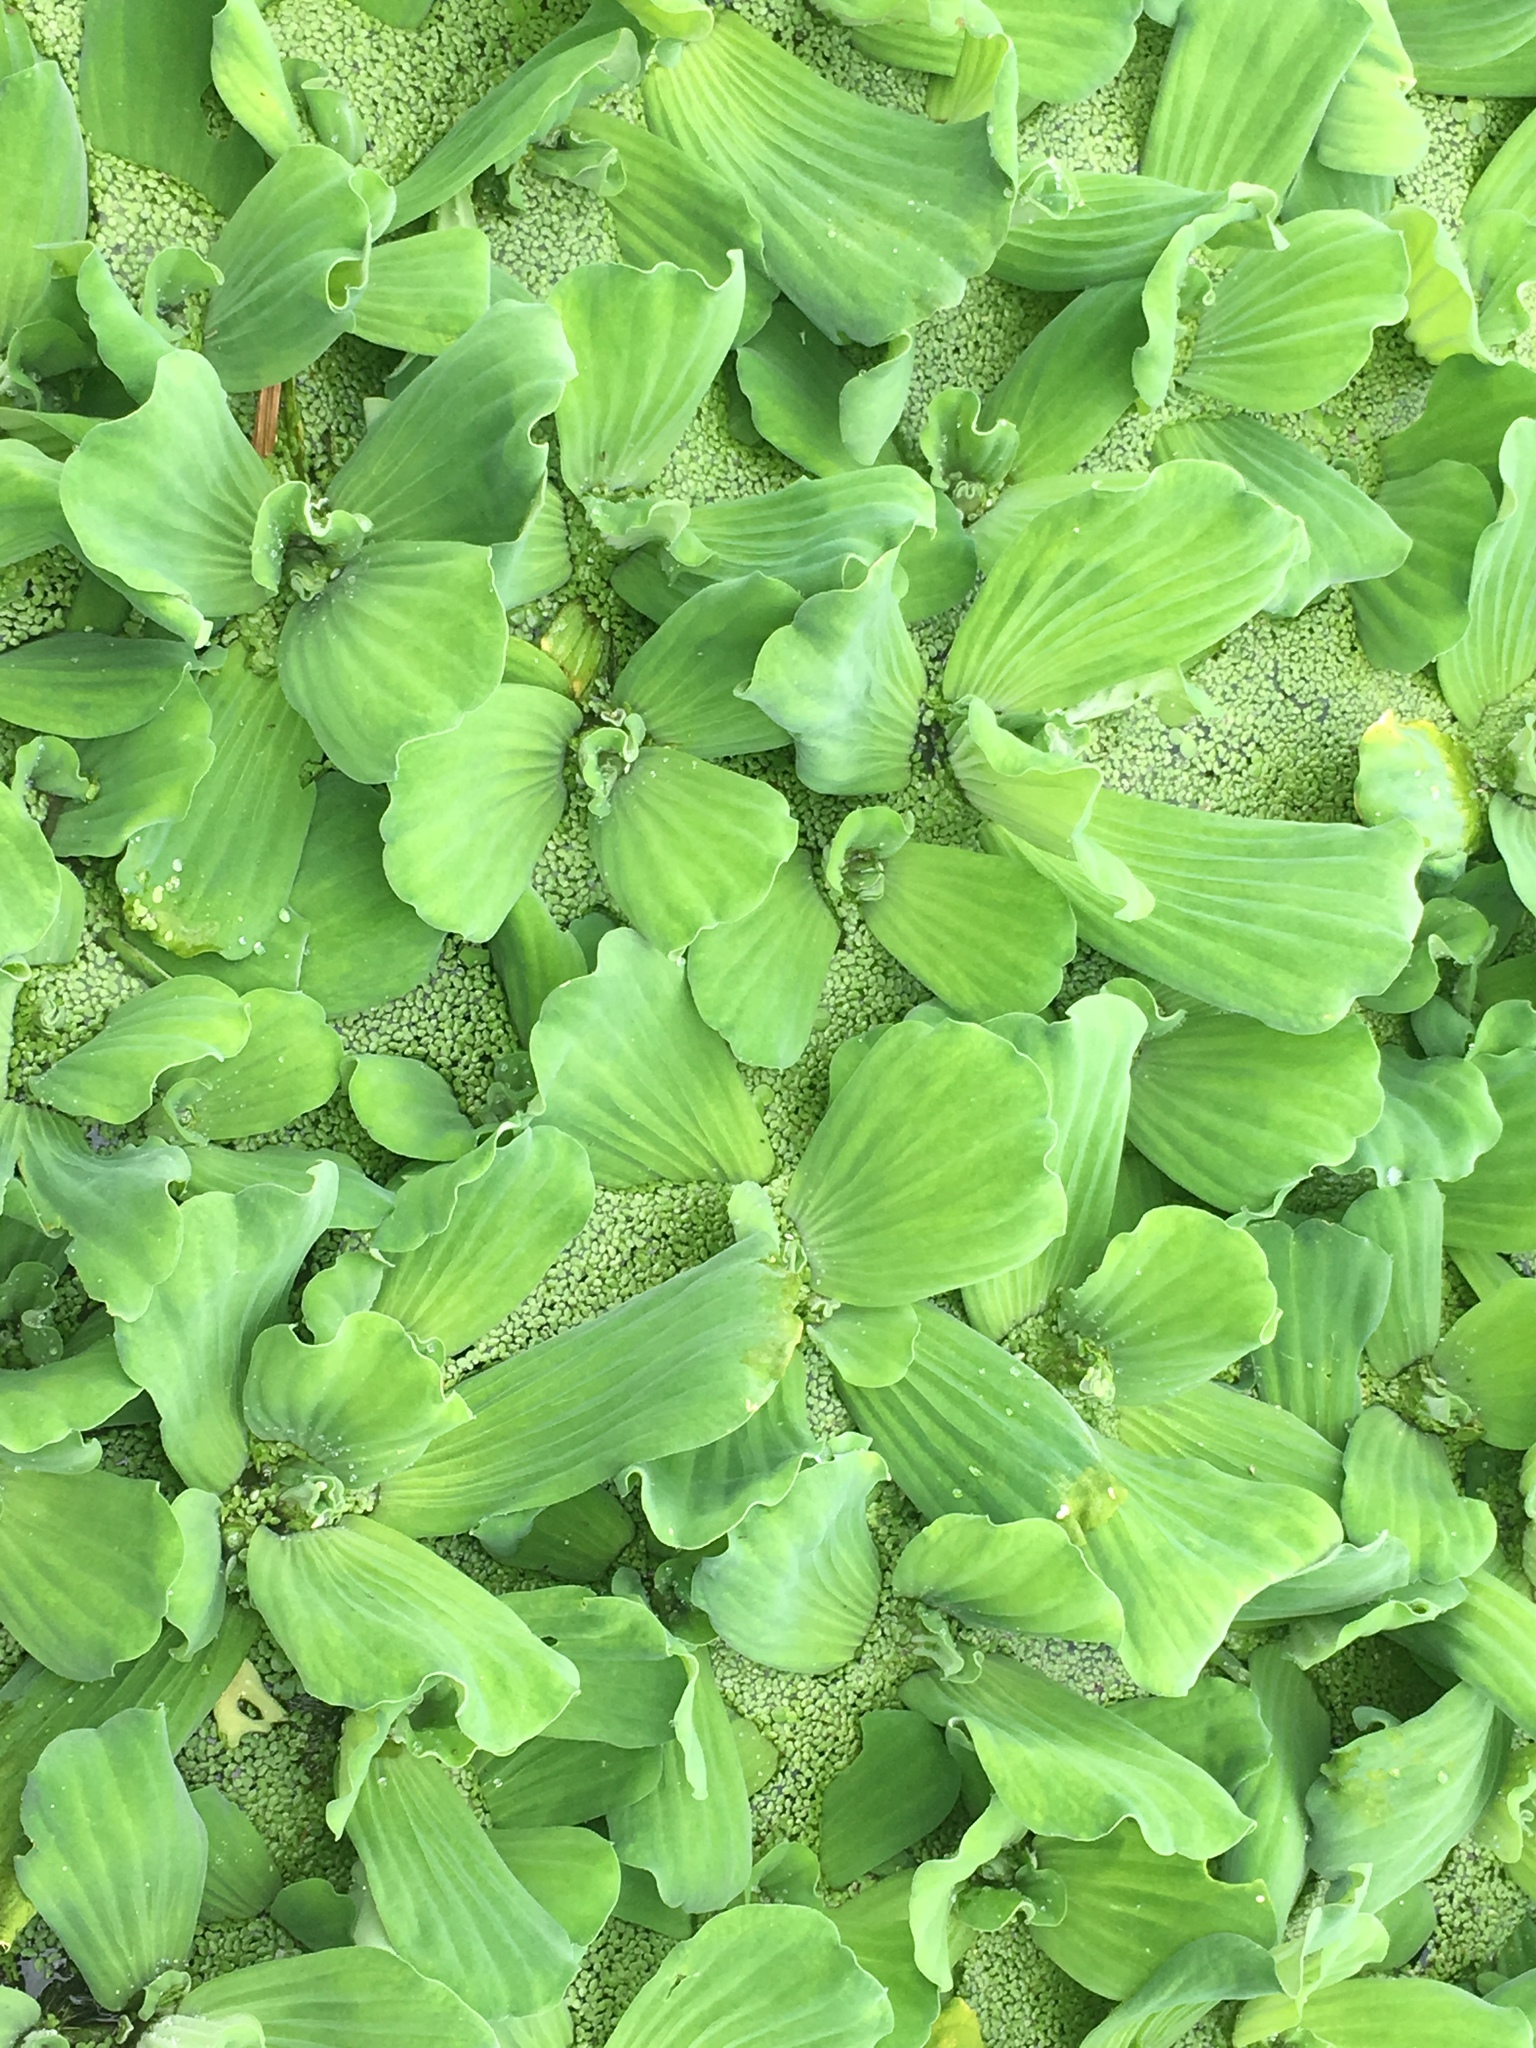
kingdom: Plantae
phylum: Tracheophyta
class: Liliopsida
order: Alismatales
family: Araceae
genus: Pistia
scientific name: Pistia stratiotes
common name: Water lettuce
